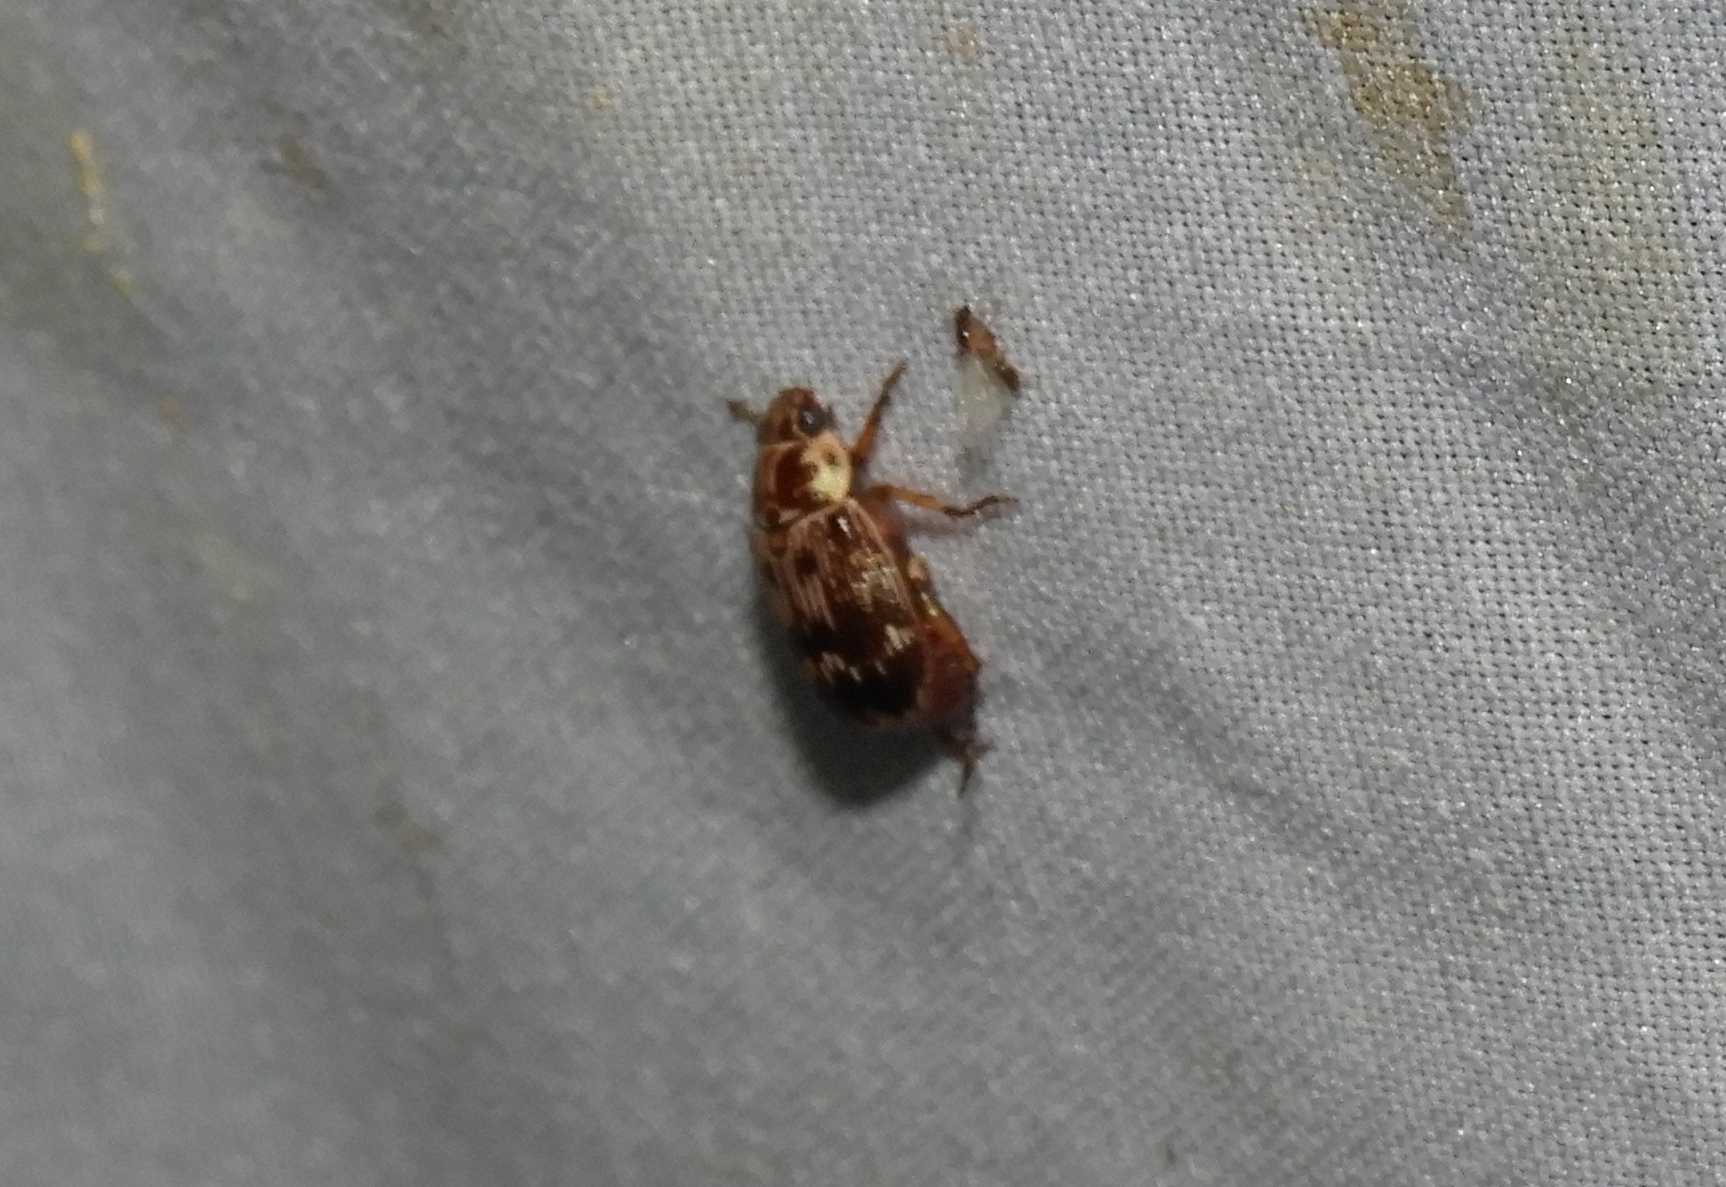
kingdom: Animalia
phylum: Arthropoda
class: Insecta
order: Coleoptera
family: Scarabaeidae
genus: Paranomala
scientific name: Paranomala histrionella
